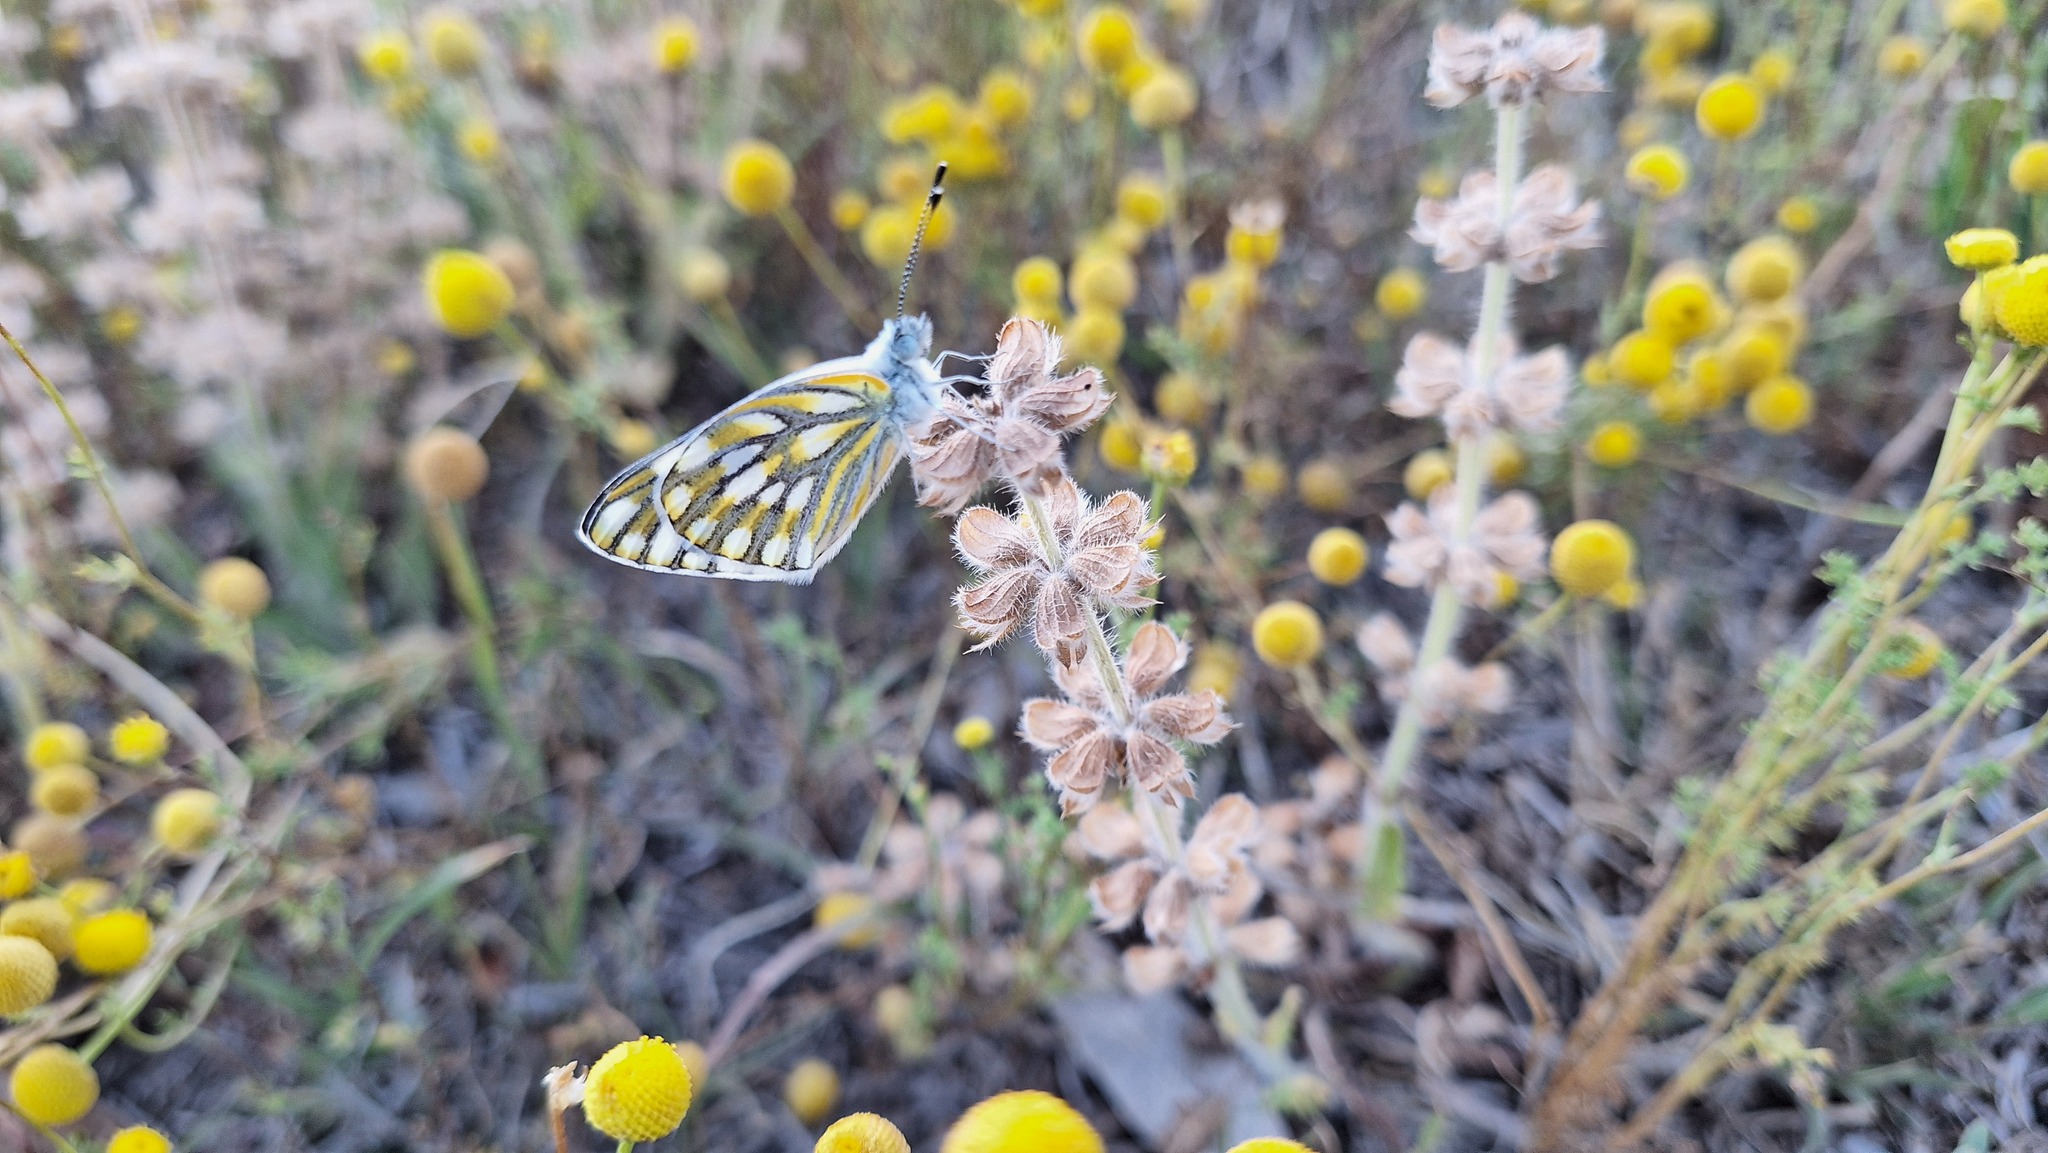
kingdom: Animalia
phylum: Arthropoda
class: Insecta
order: Lepidoptera
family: Pieridae
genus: Pontia
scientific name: Pontia helice
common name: Meadow white
